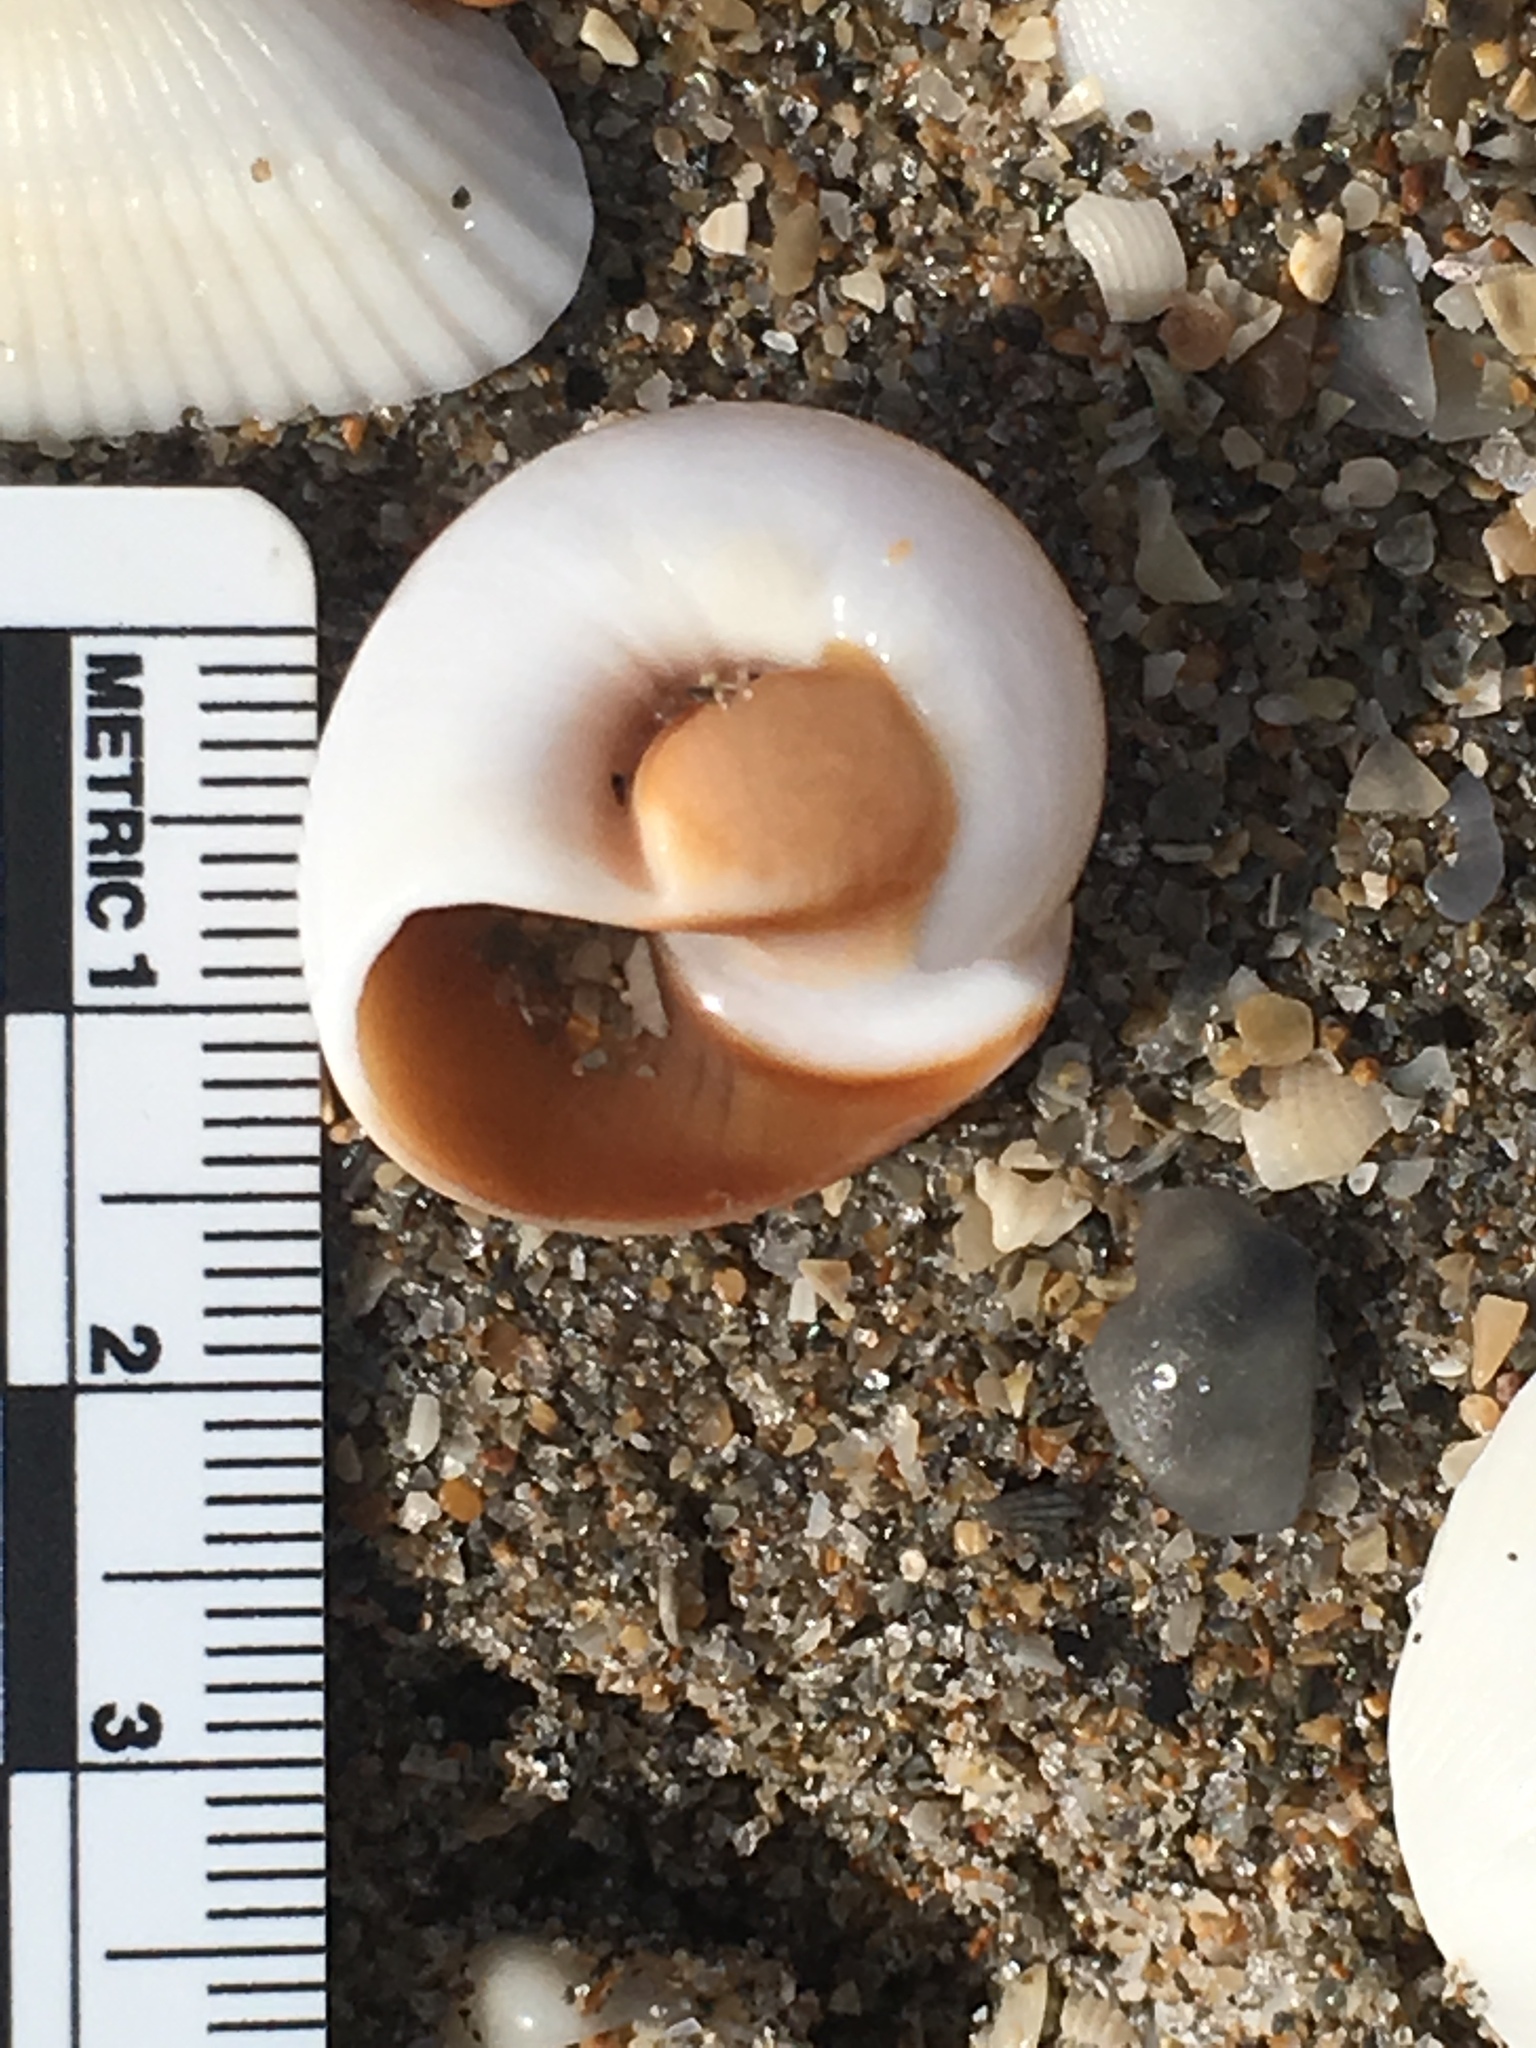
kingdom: Animalia
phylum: Mollusca
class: Gastropoda
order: Littorinimorpha
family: Naticidae
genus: Neverita
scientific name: Neverita duplicata
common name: Lobed moonsnail
